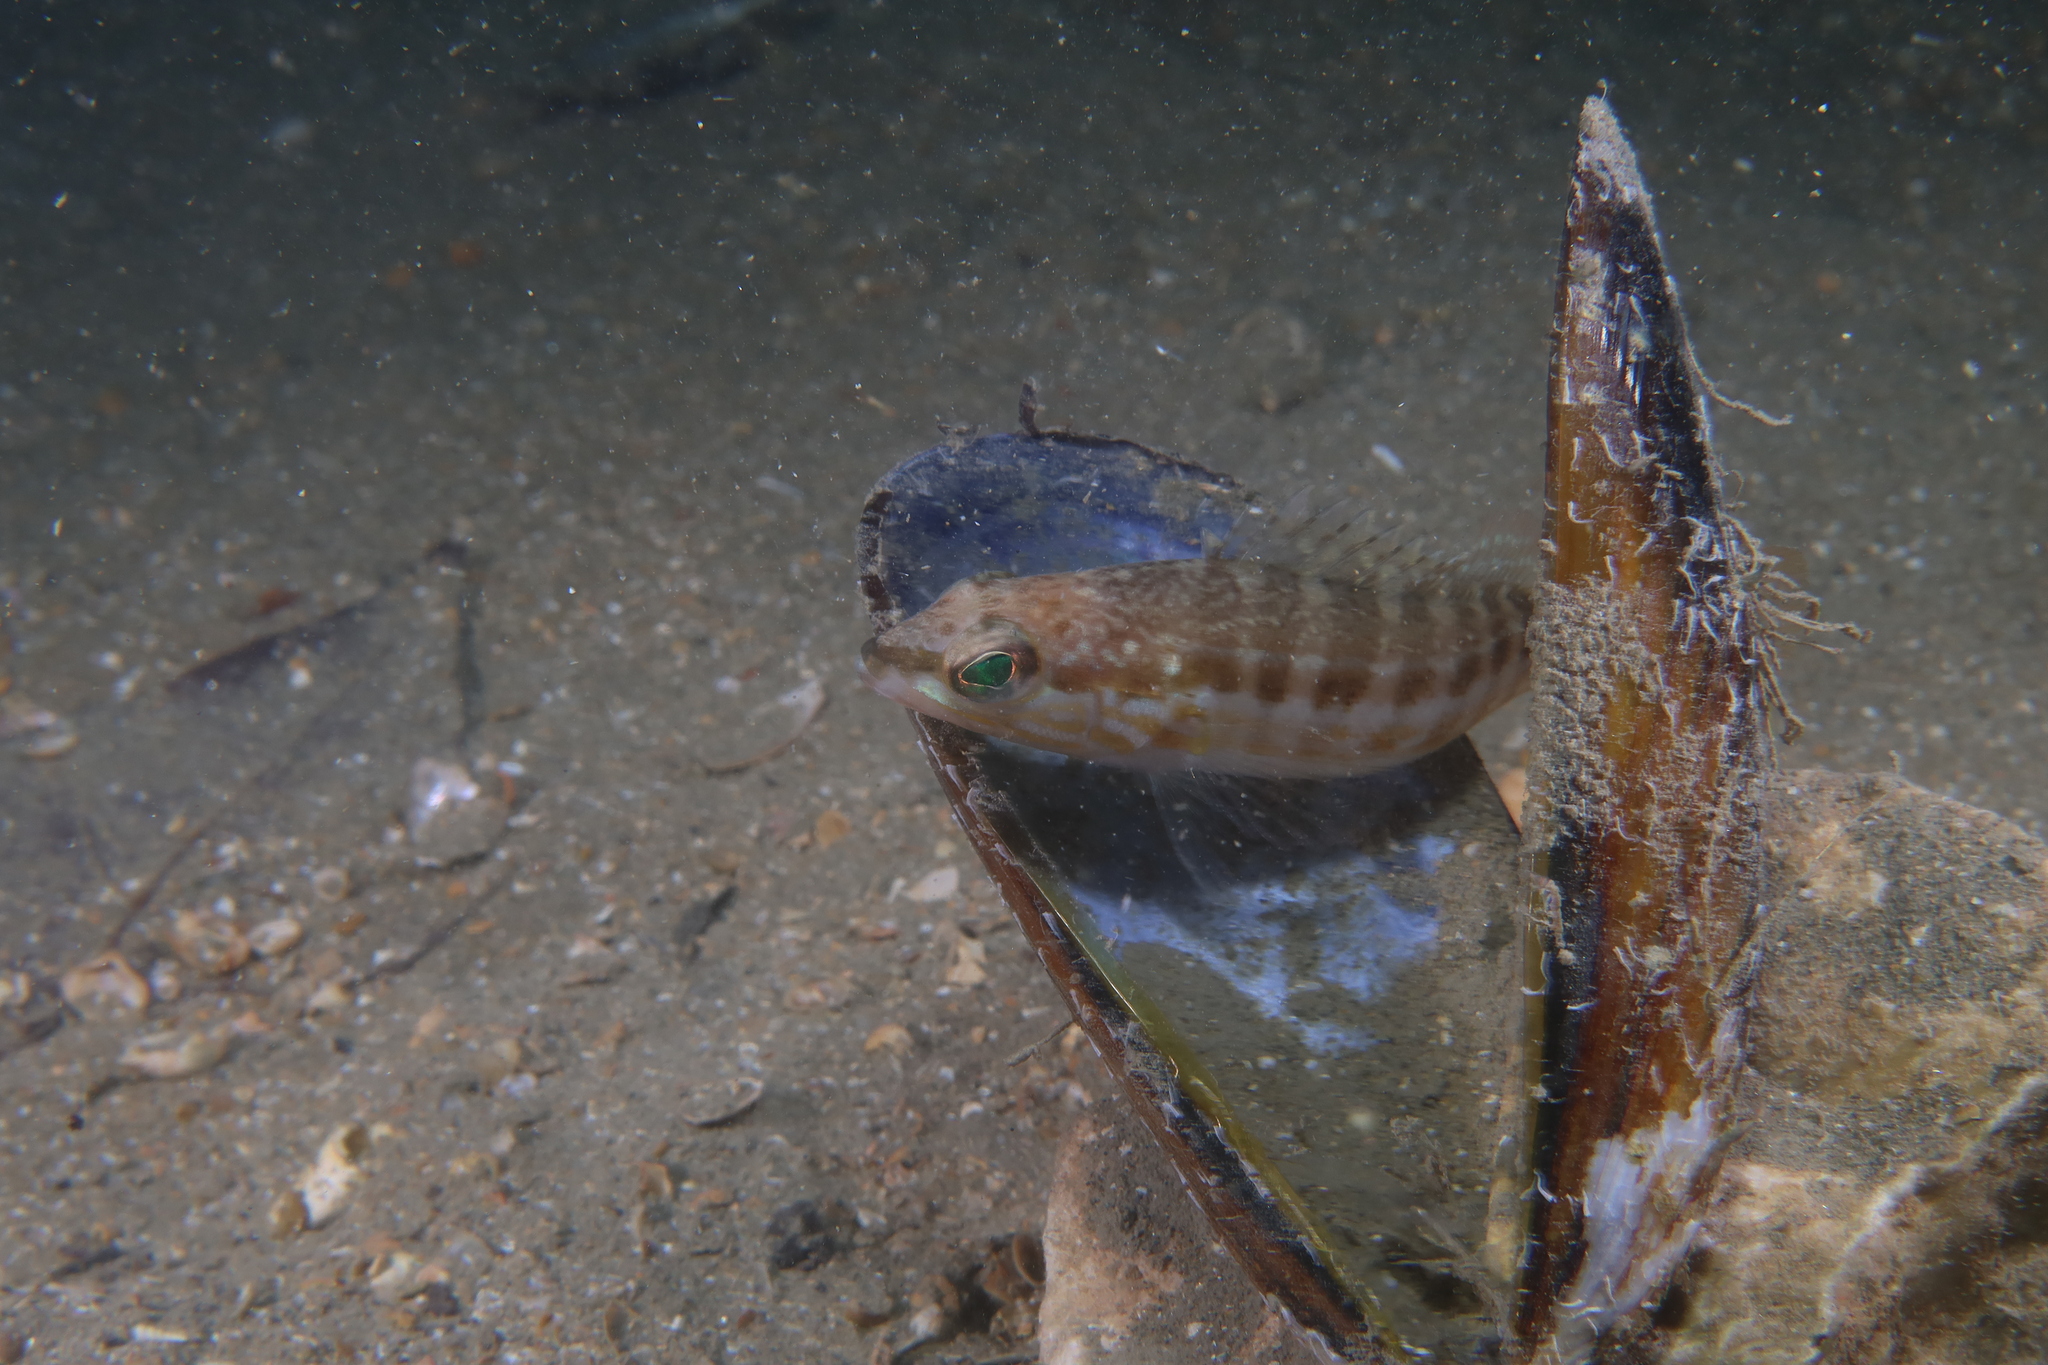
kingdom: Animalia
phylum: Chordata
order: Perciformes
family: Serranidae
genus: Serranus
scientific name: Serranus cabrilla
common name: Comber
